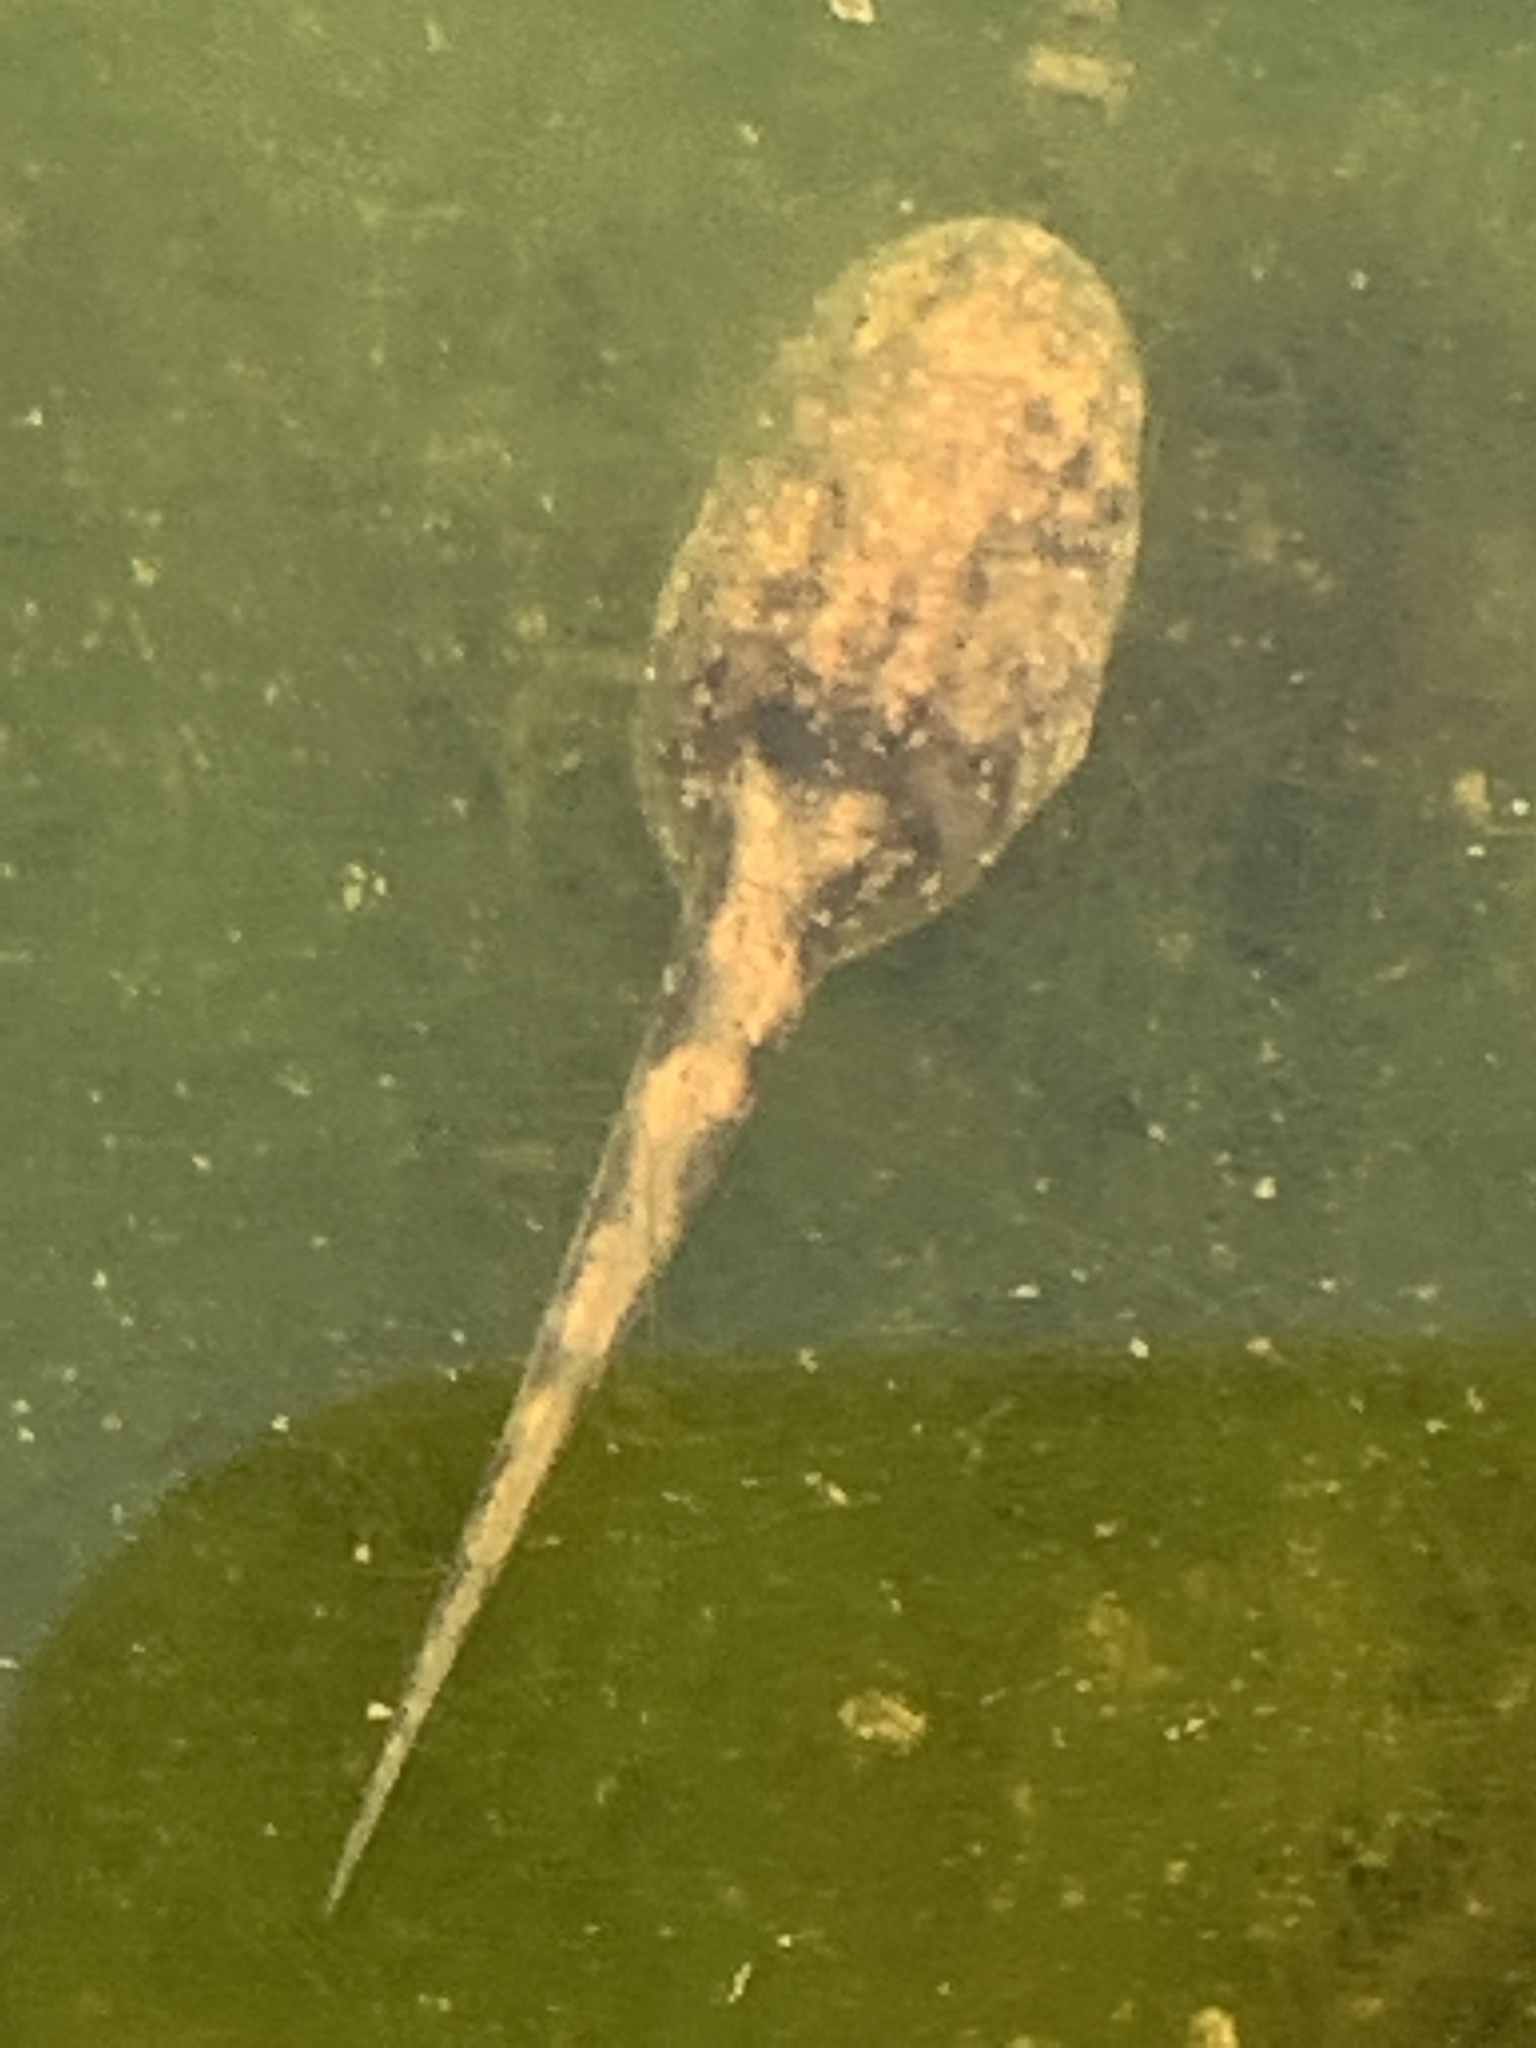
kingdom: Animalia
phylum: Chordata
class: Amphibia
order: Anura
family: Alytidae
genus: Alytes
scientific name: Alytes obstetricans
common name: Midwife toad
